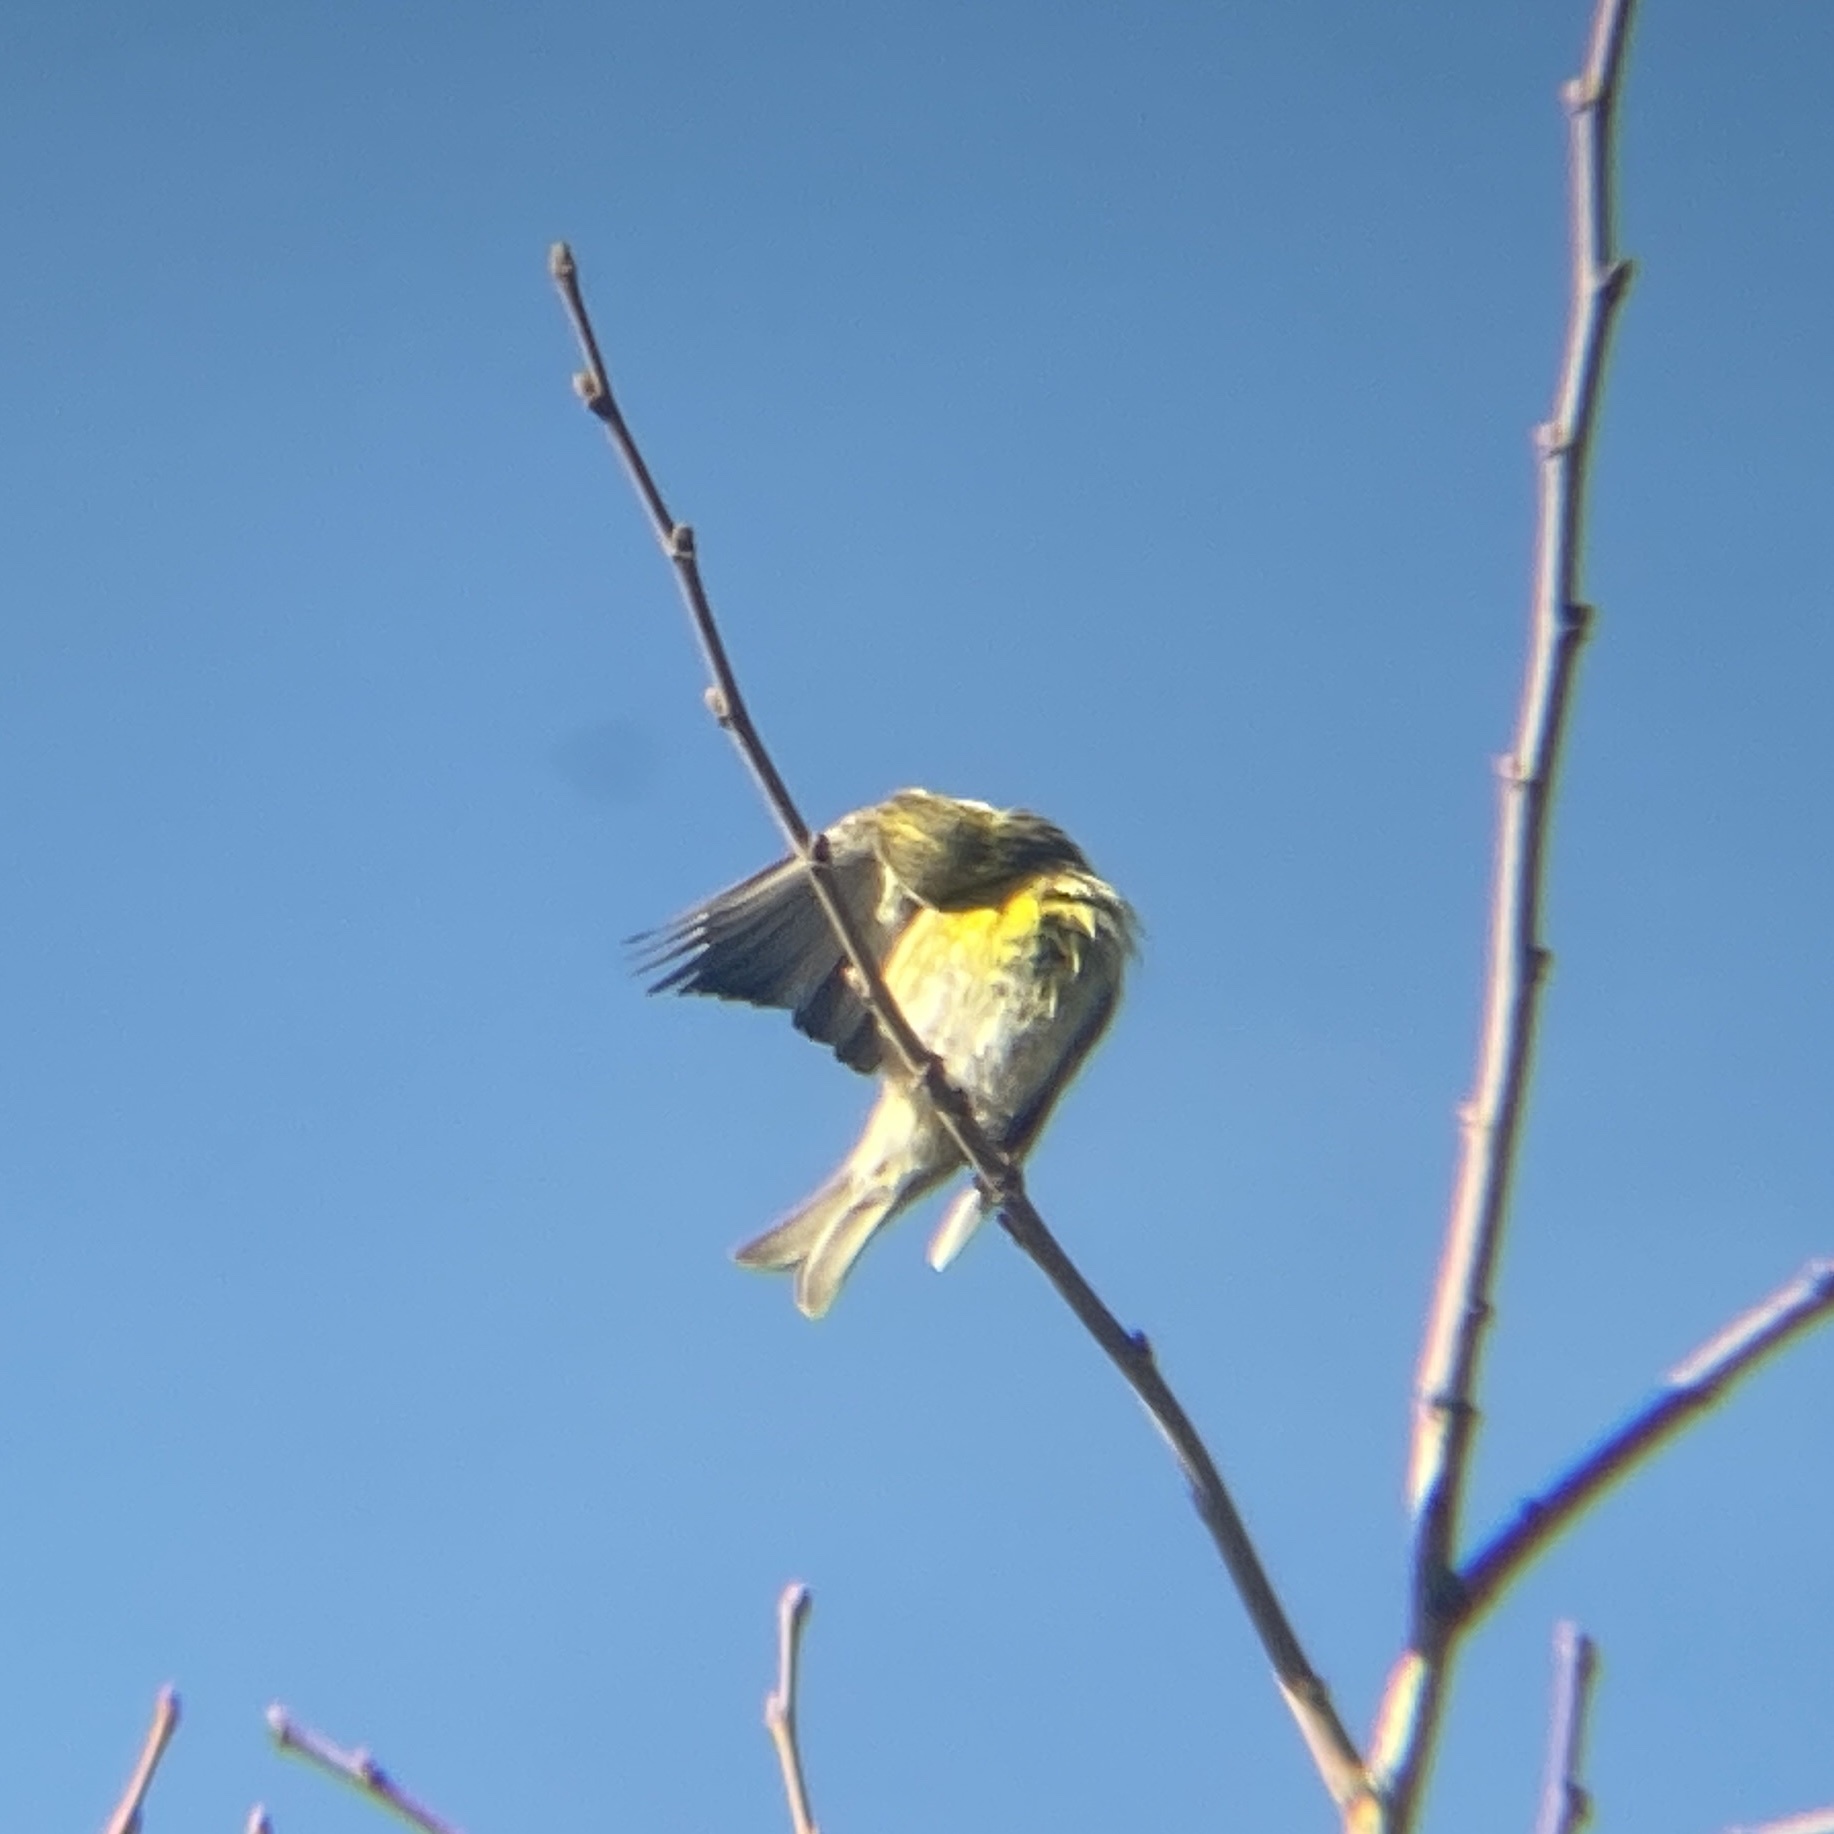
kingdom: Animalia
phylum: Chordata
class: Aves
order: Passeriformes
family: Fringillidae
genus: Serinus
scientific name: Serinus serinus
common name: European serin
